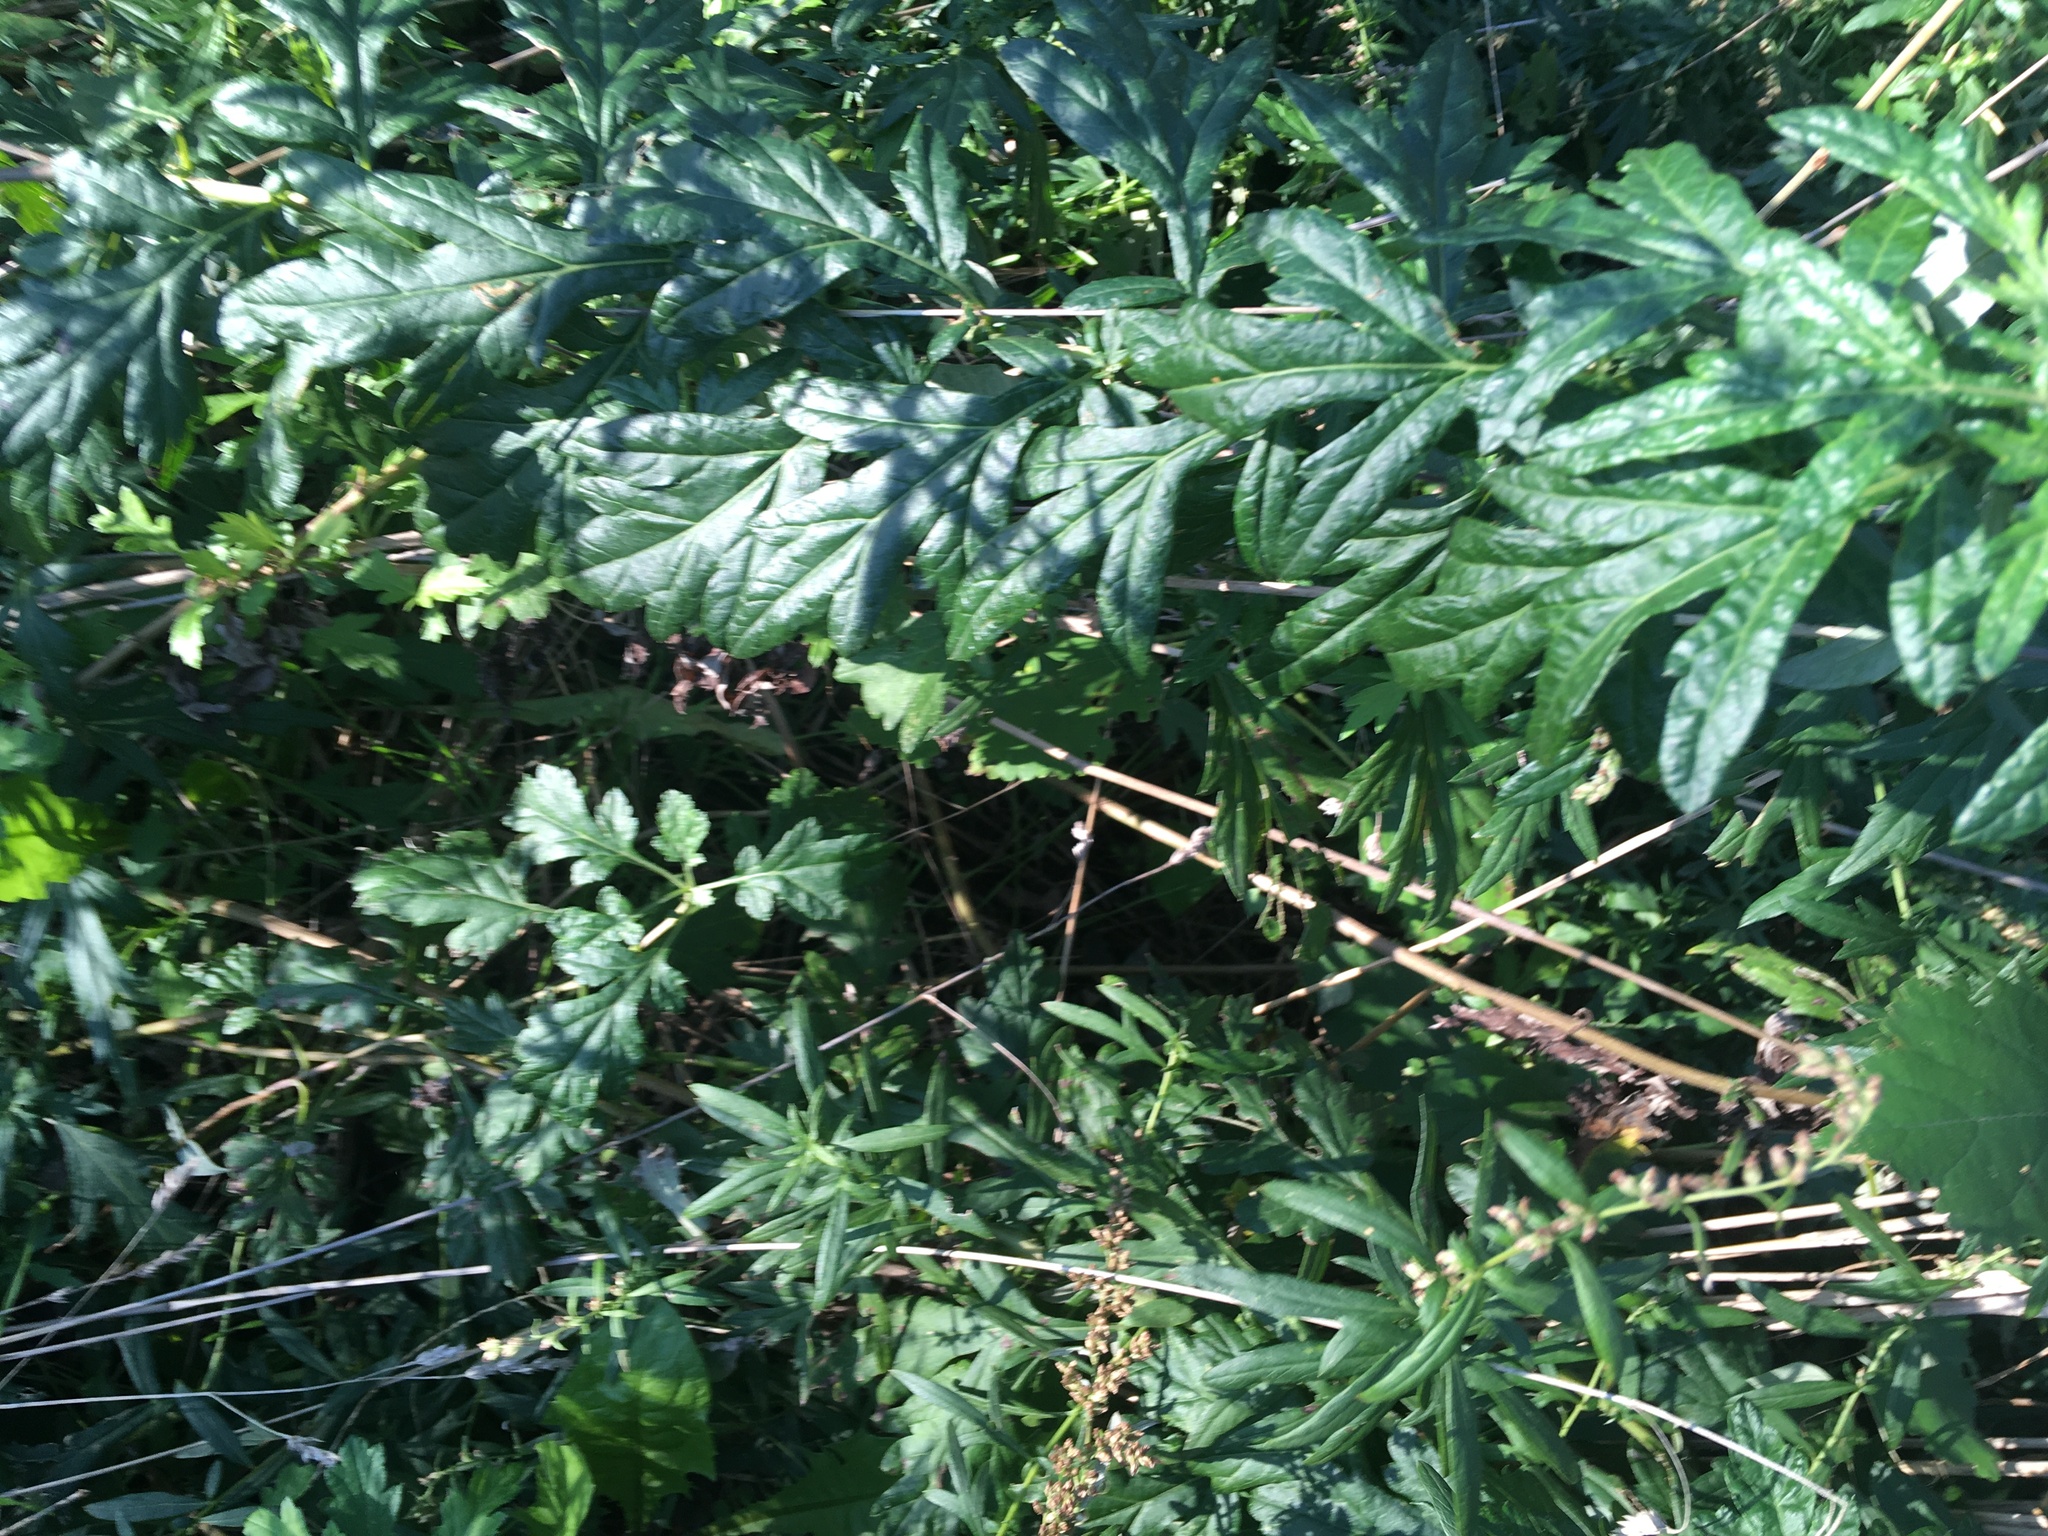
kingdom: Plantae
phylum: Tracheophyta
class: Magnoliopsida
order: Asterales
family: Asteraceae
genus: Artemisia
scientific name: Artemisia vulgaris
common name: Mugwort
